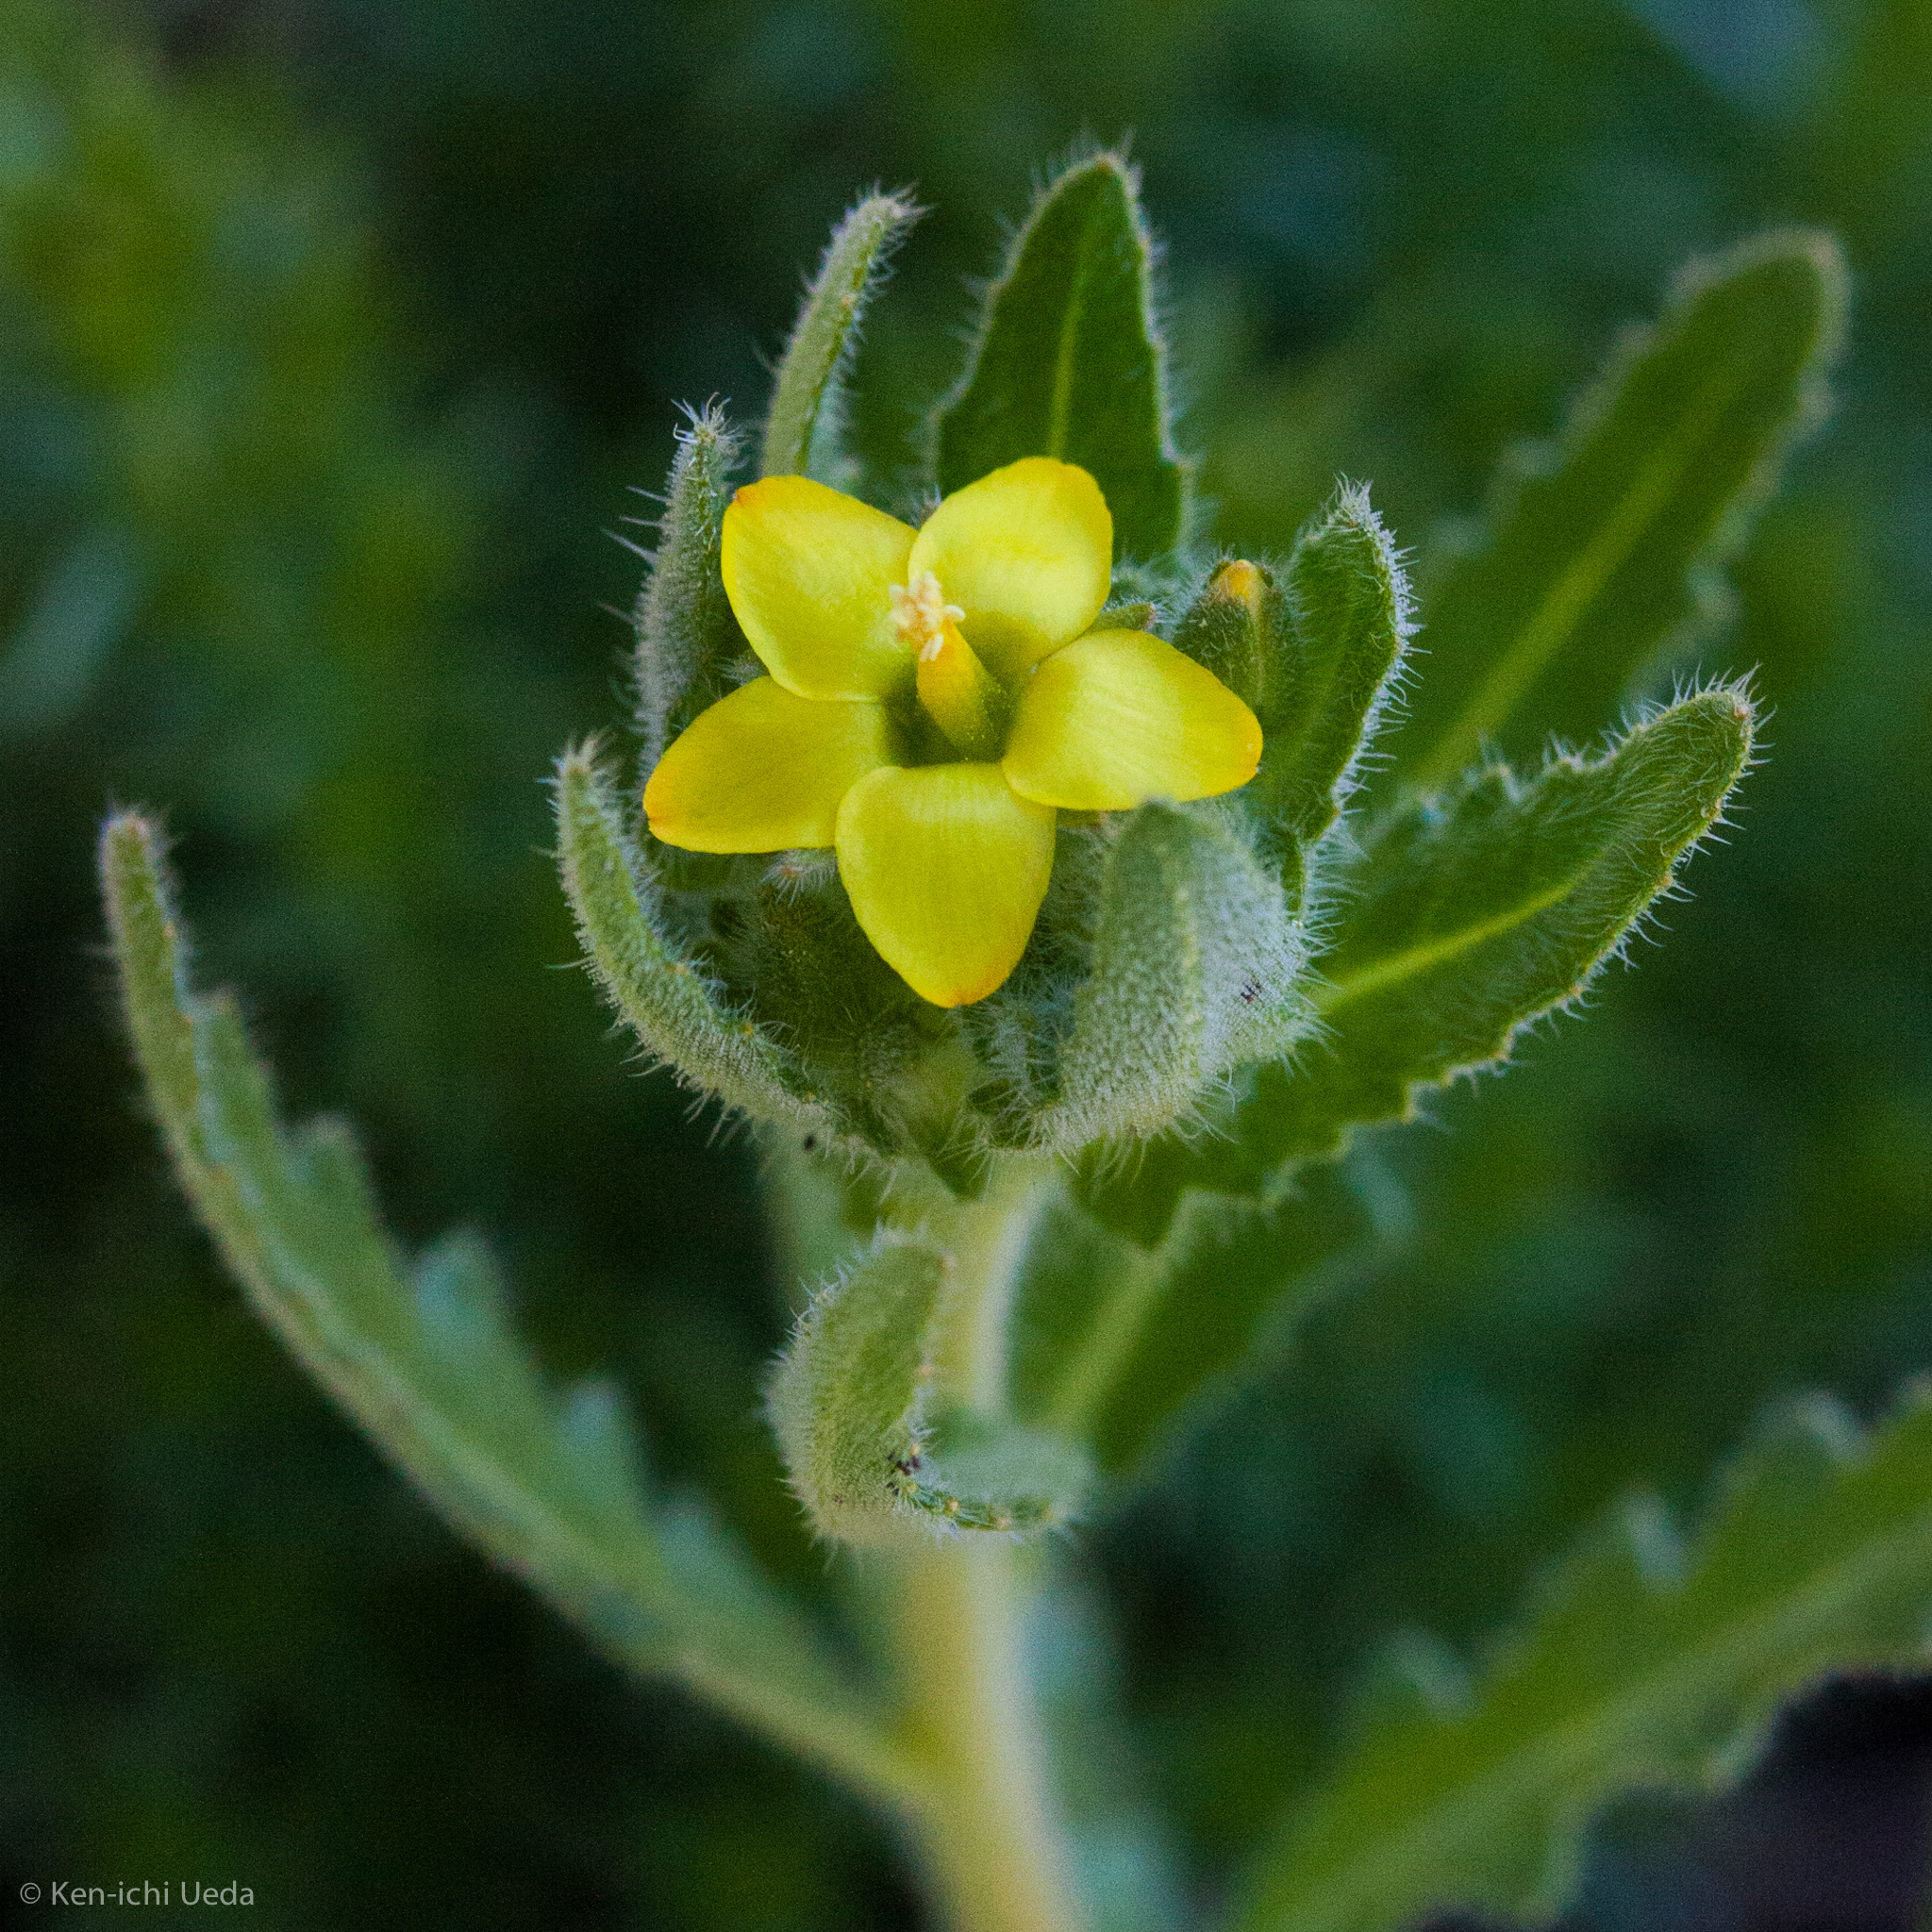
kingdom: Plantae
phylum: Tracheophyta
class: Magnoliopsida
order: Cornales
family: Loasaceae
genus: Mentzelia
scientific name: Mentzelia micrantha
